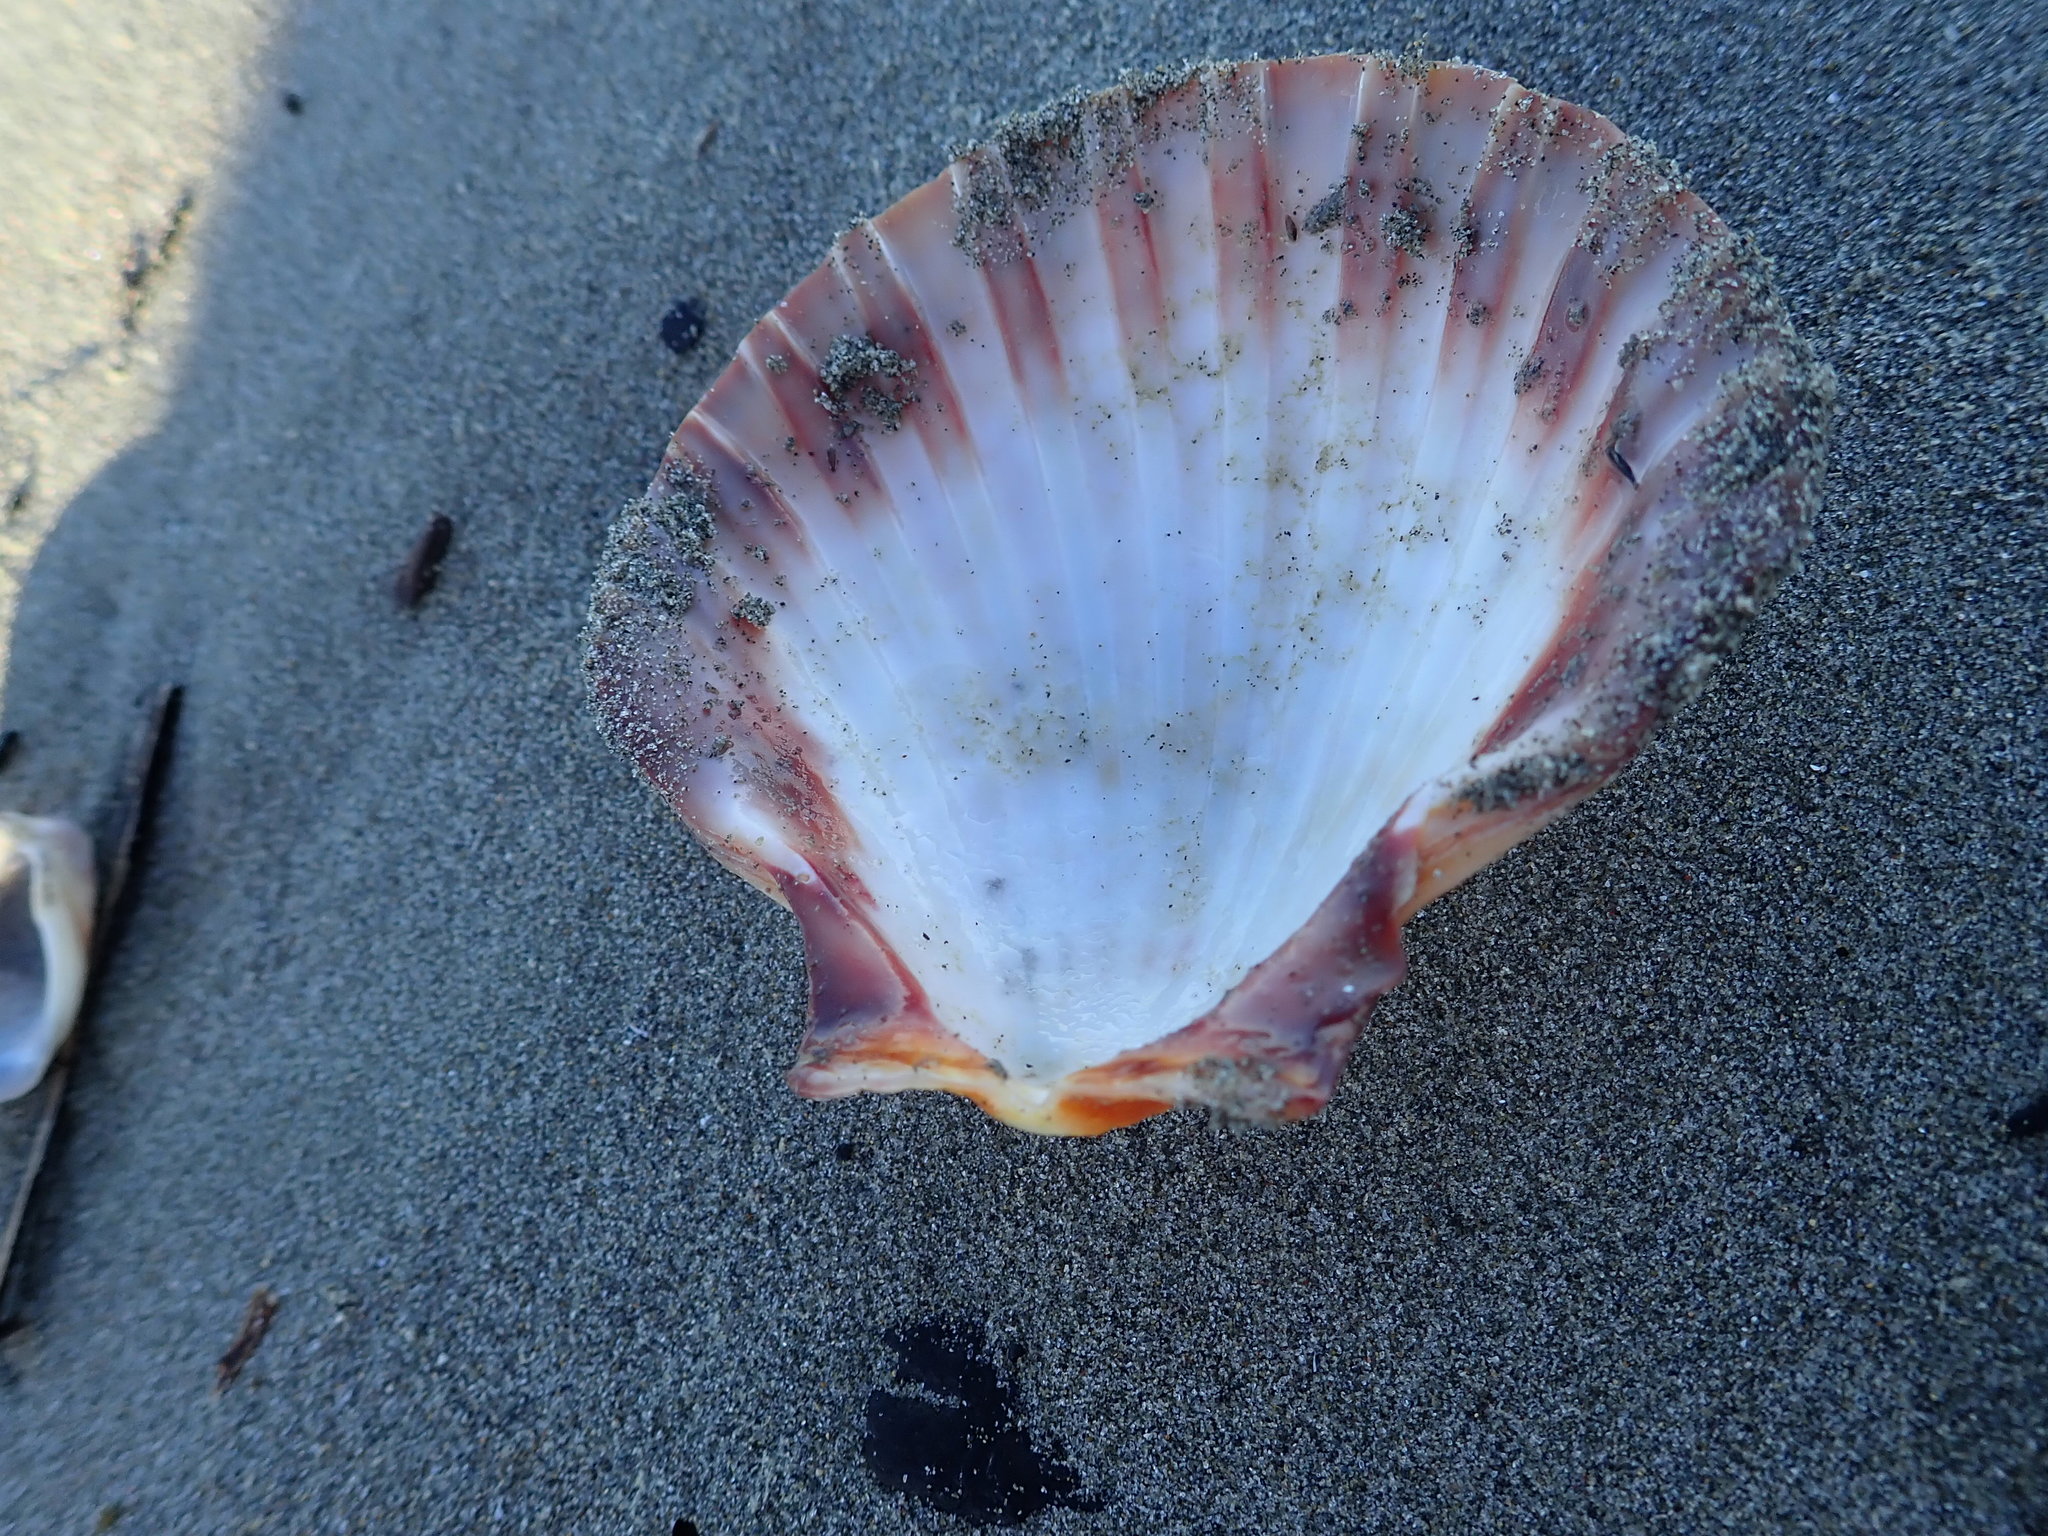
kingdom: Animalia
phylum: Mollusca
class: Bivalvia
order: Pectinida
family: Pectinidae
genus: Pecten
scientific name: Pecten novaezelandiae
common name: New zealand scallop
